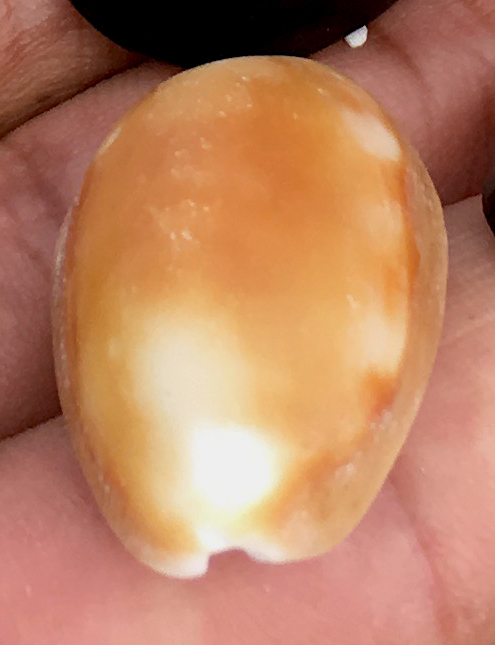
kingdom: Animalia
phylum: Mollusca
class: Gastropoda
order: Littorinimorpha
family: Cypraeidae
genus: Lyncina
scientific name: Lyncina schilderorum
